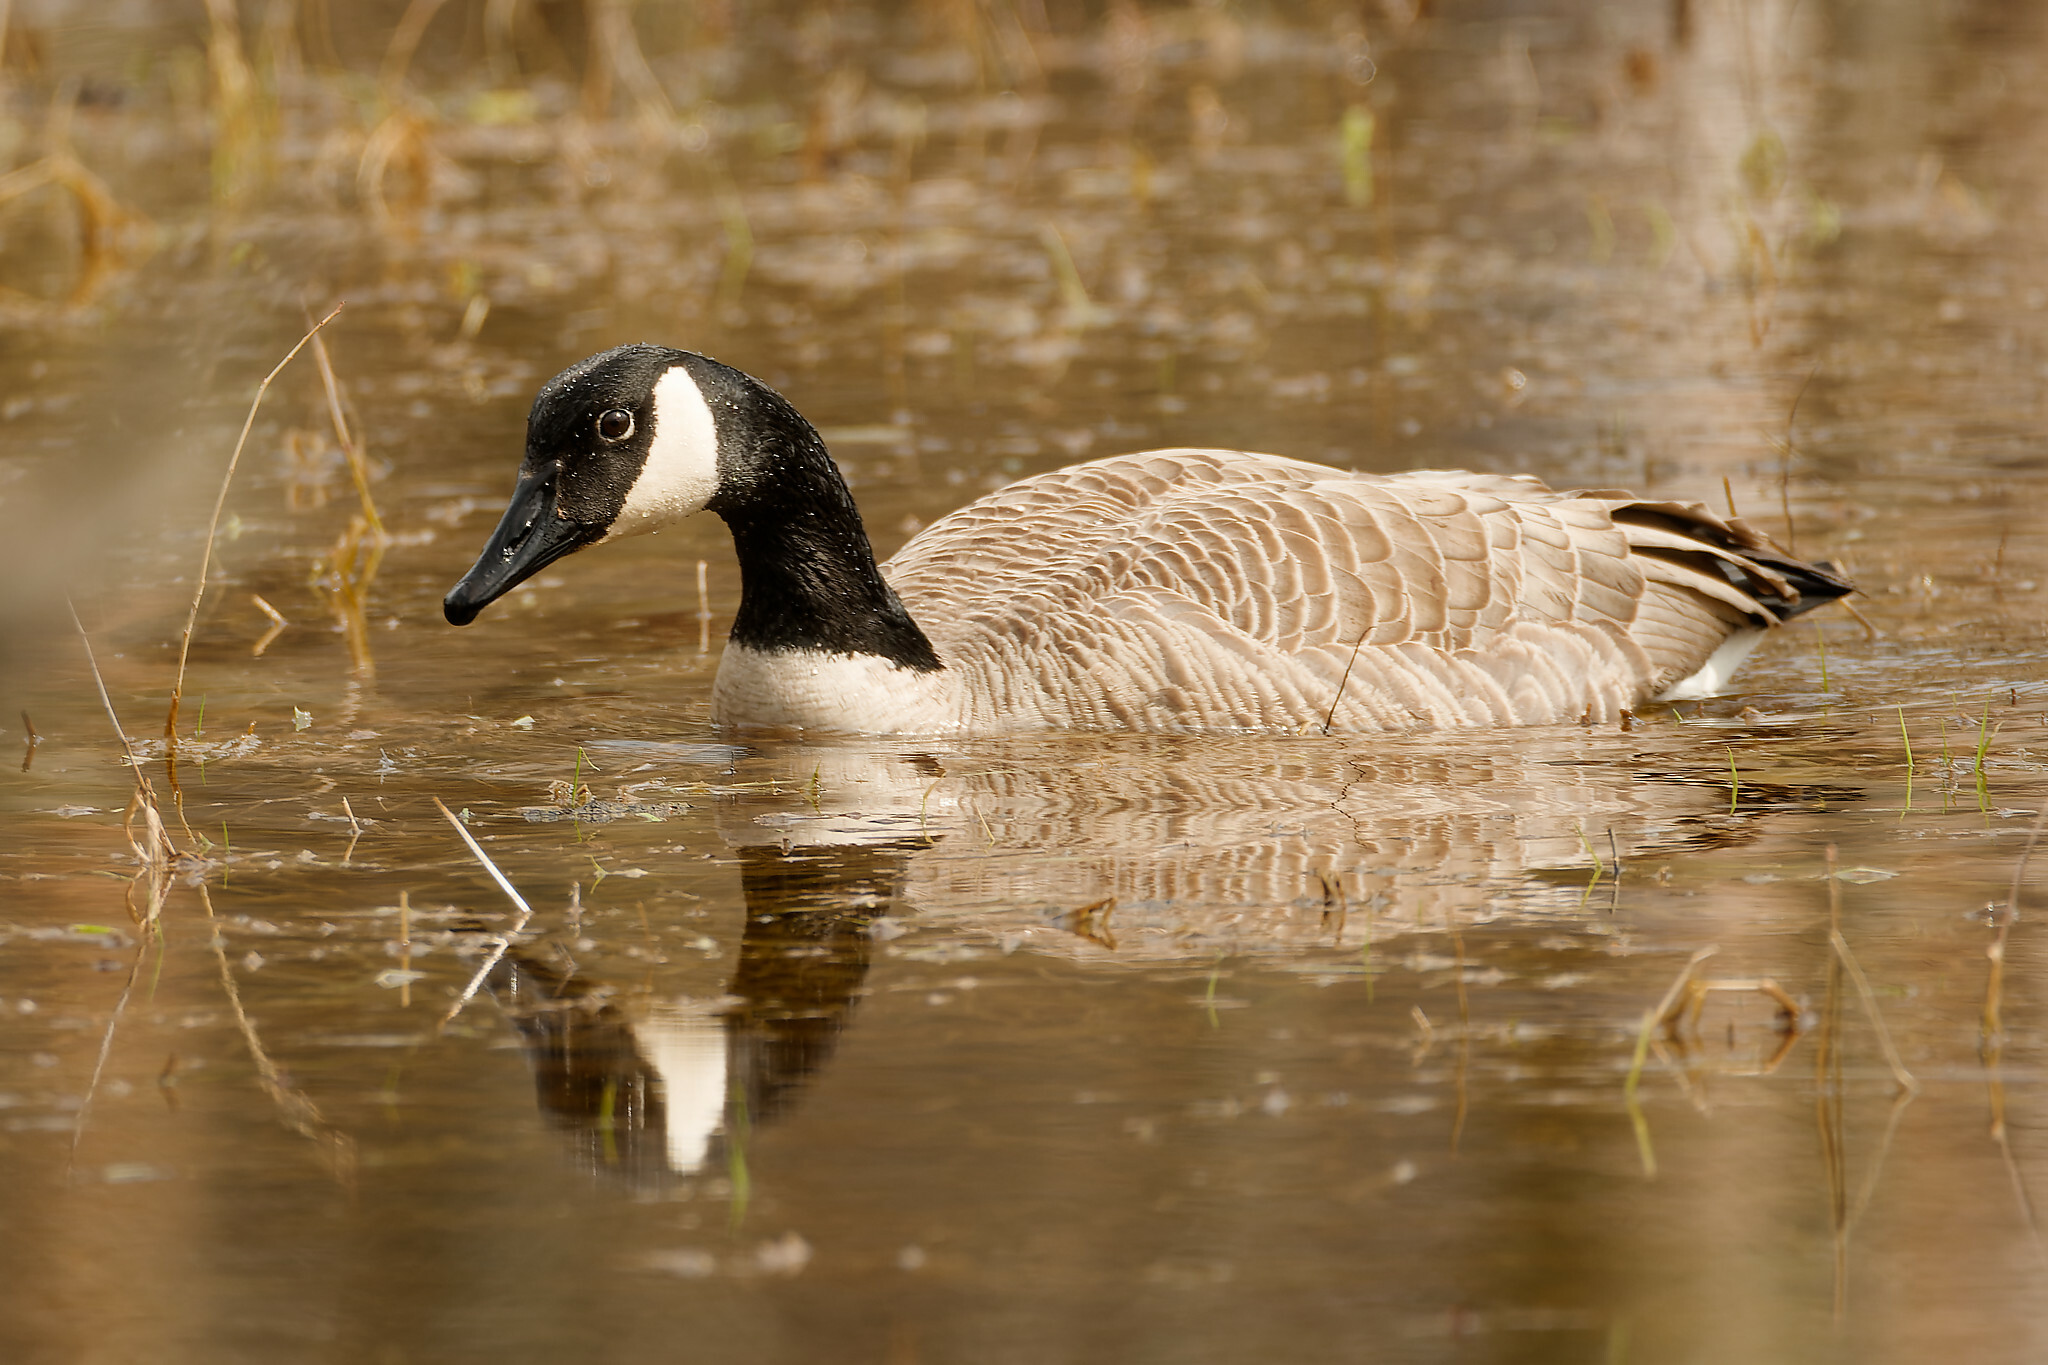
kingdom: Animalia
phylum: Chordata
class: Aves
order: Anseriformes
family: Anatidae
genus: Branta
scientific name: Branta canadensis
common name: Canada goose
